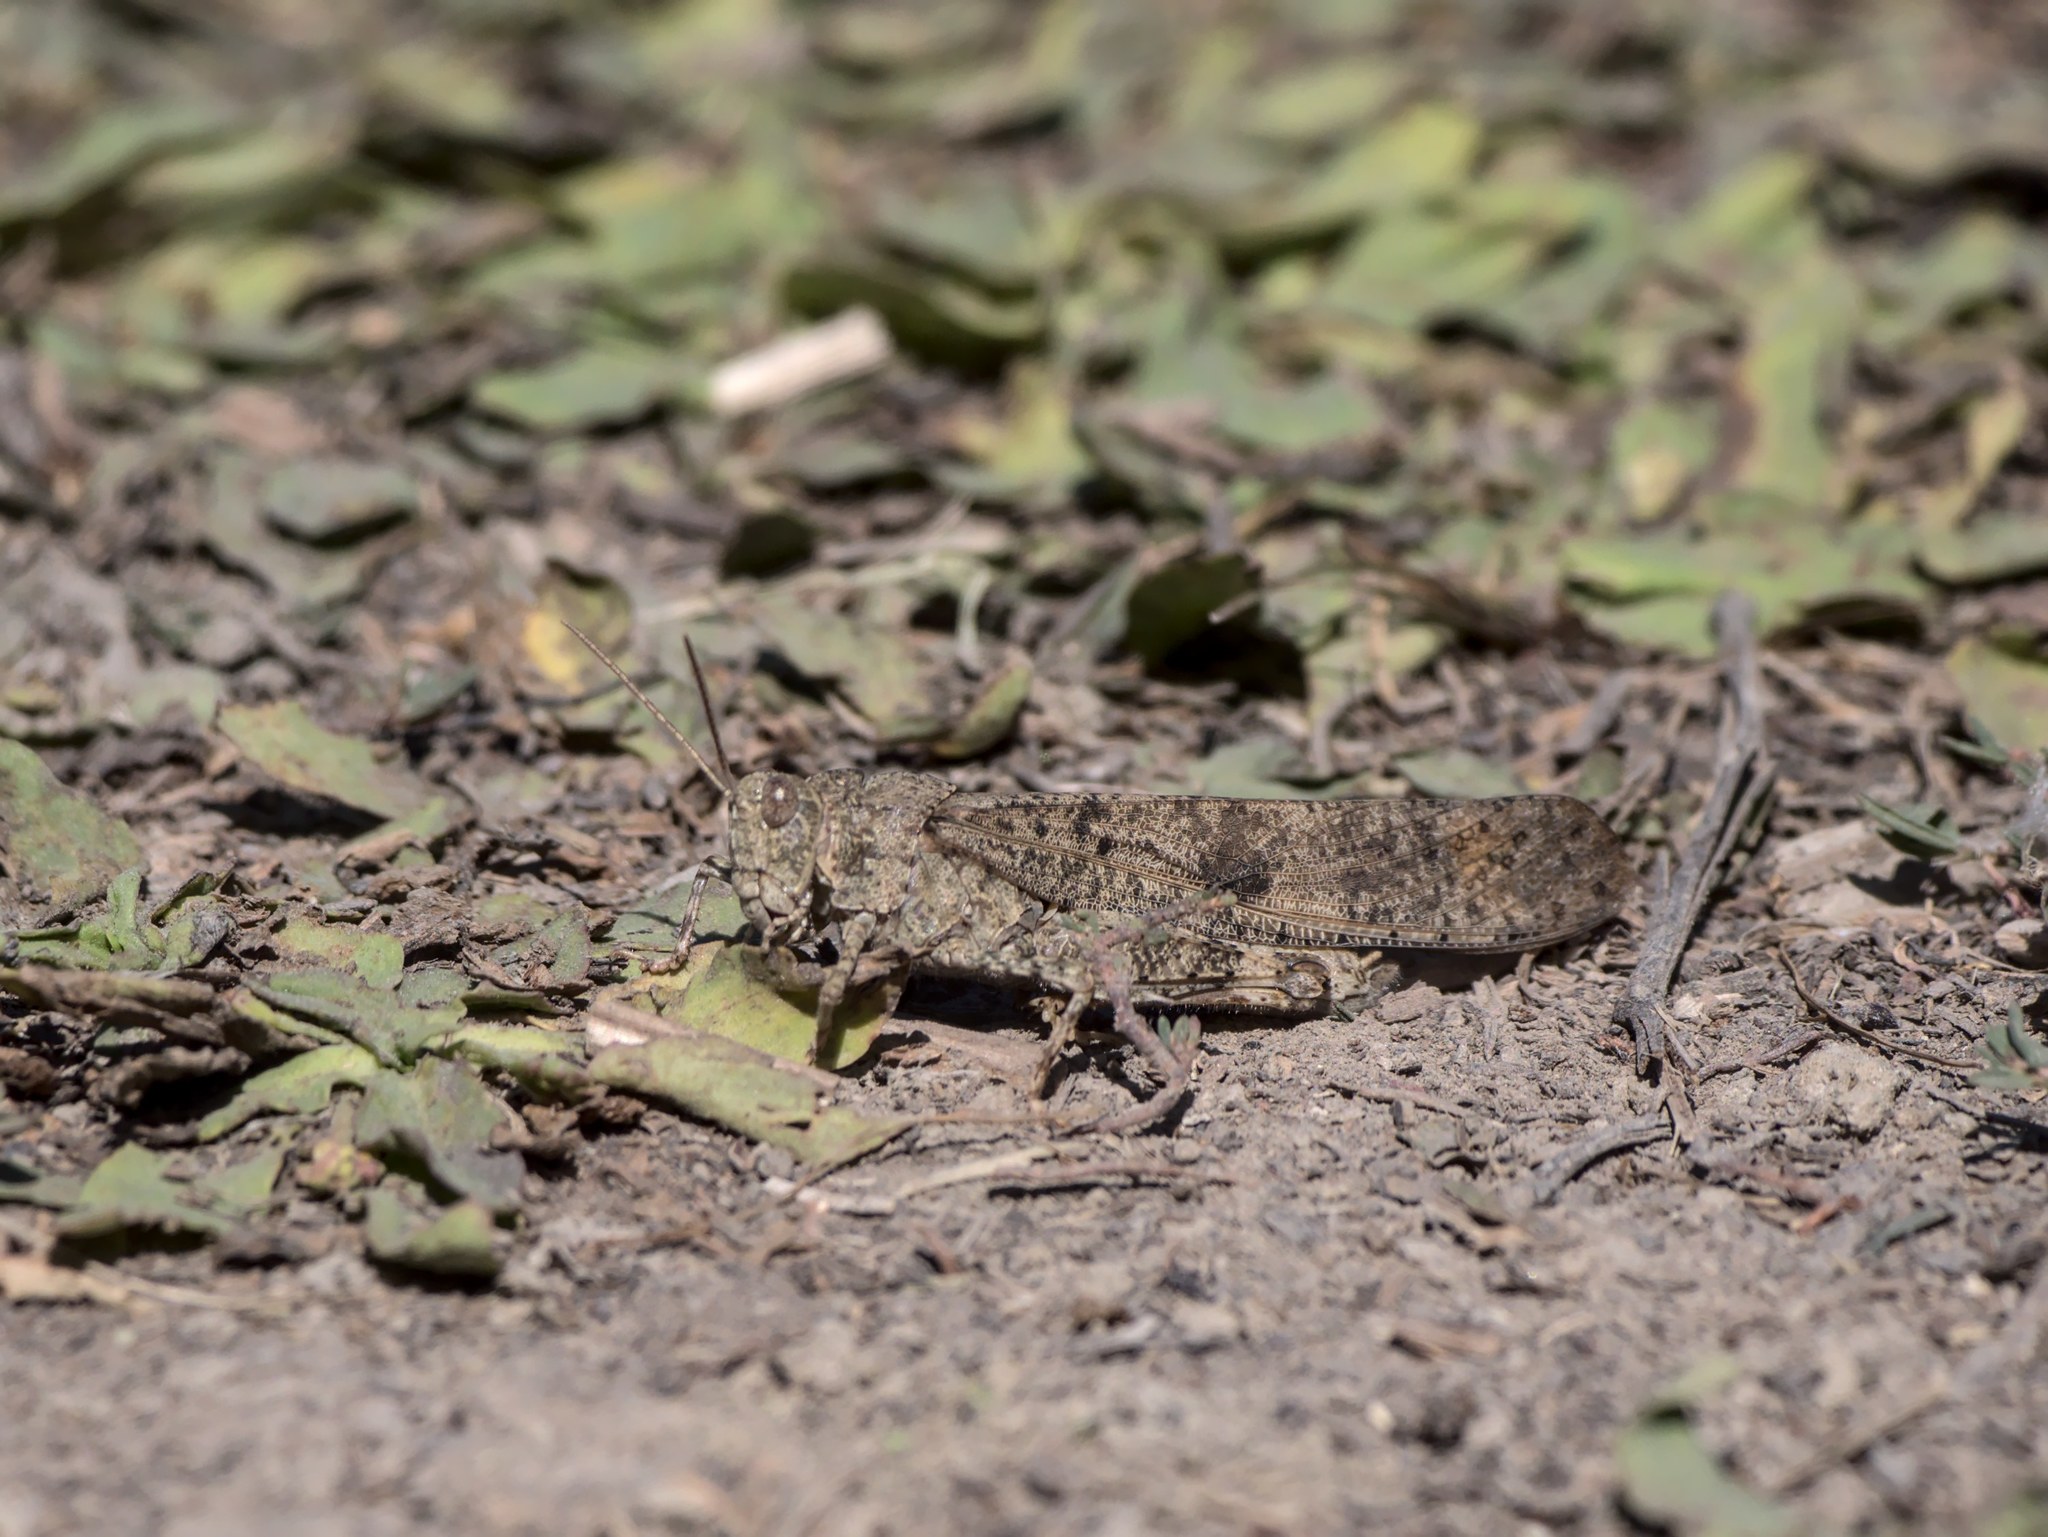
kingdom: Animalia
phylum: Arthropoda
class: Insecta
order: Orthoptera
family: Acrididae
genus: Dissosteira
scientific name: Dissosteira carolina
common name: Carolina grasshopper
